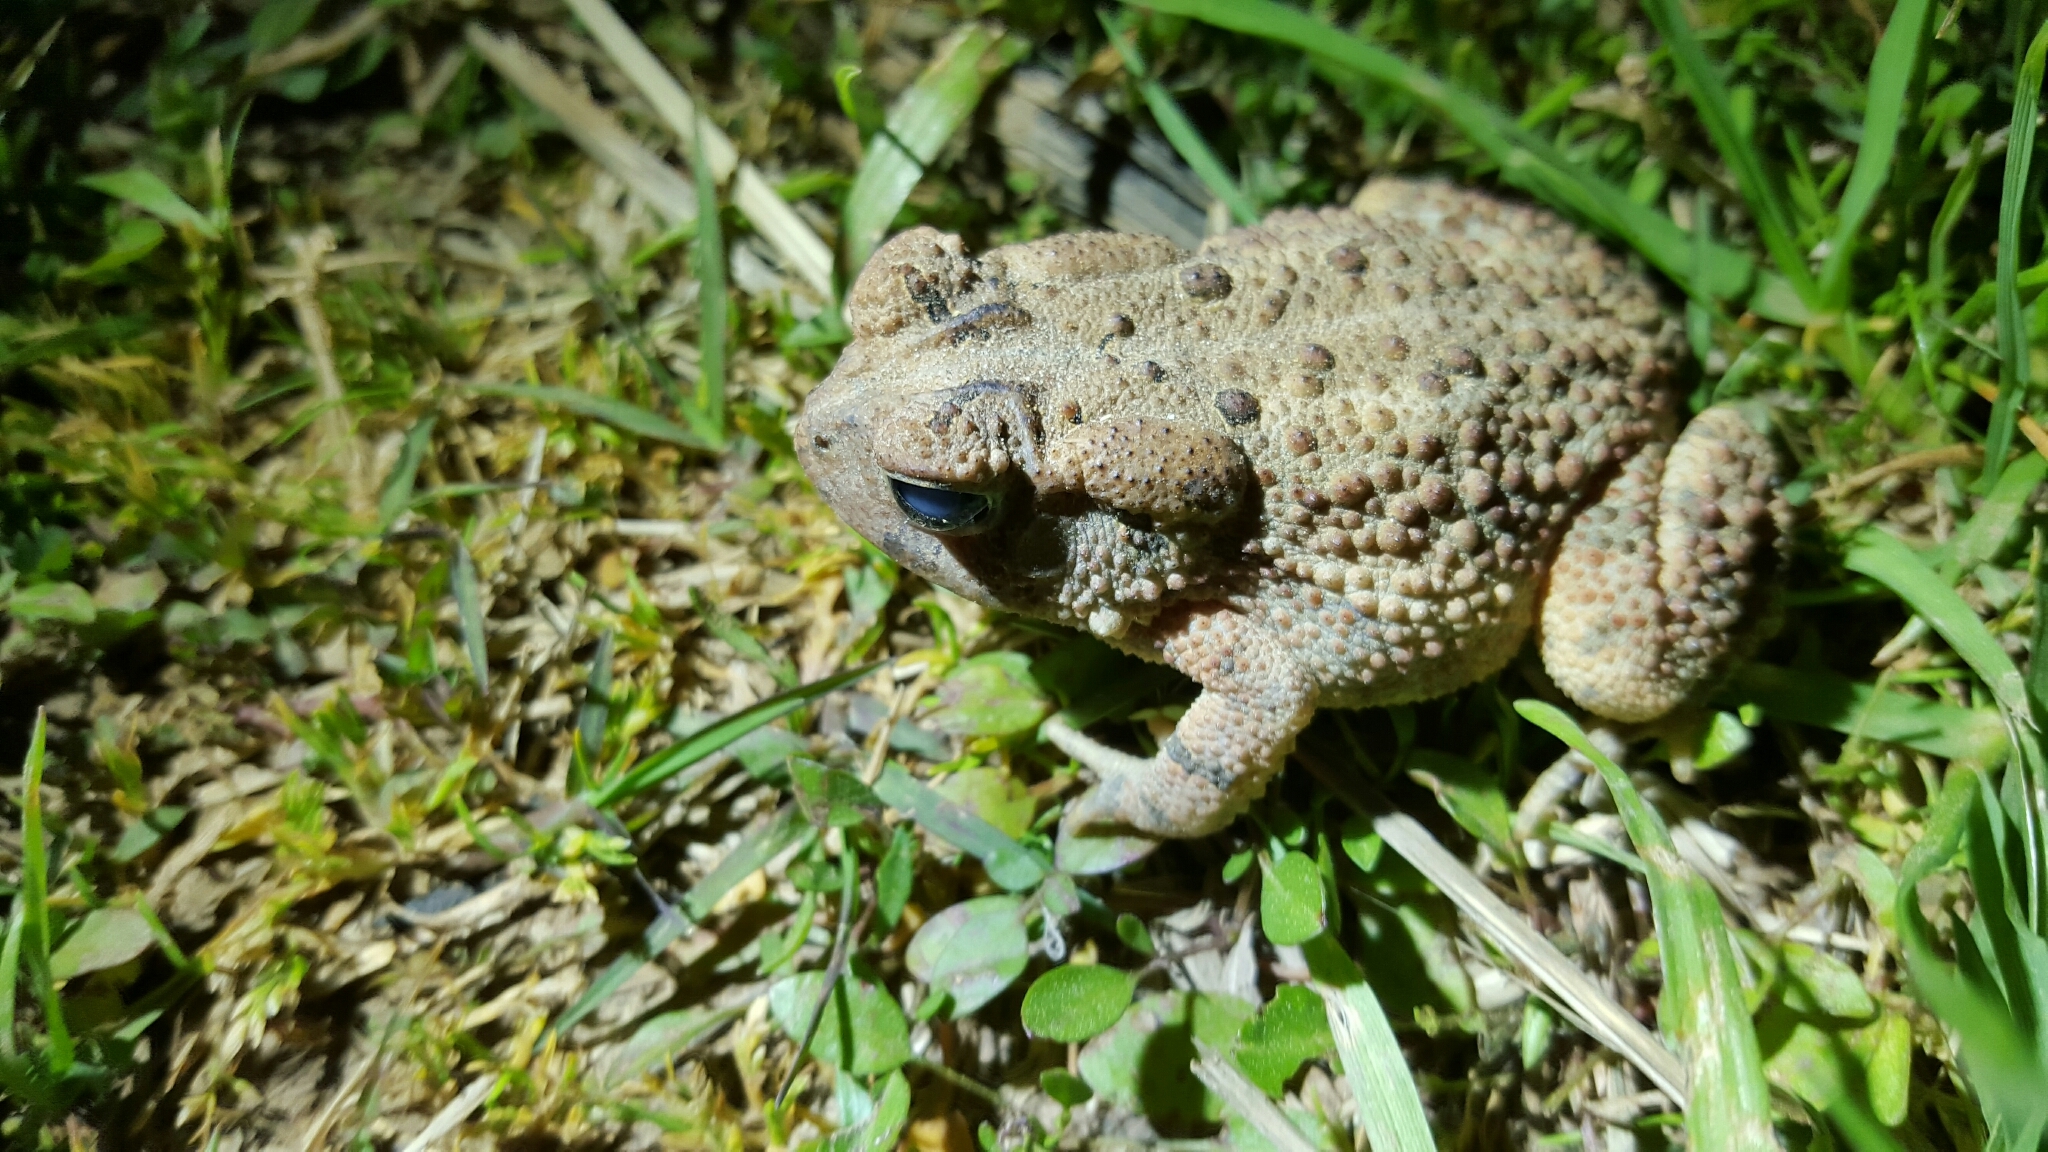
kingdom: Animalia
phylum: Chordata
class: Amphibia
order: Anura
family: Bufonidae
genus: Anaxyrus
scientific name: Anaxyrus fowleri
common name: Fowler's toad
